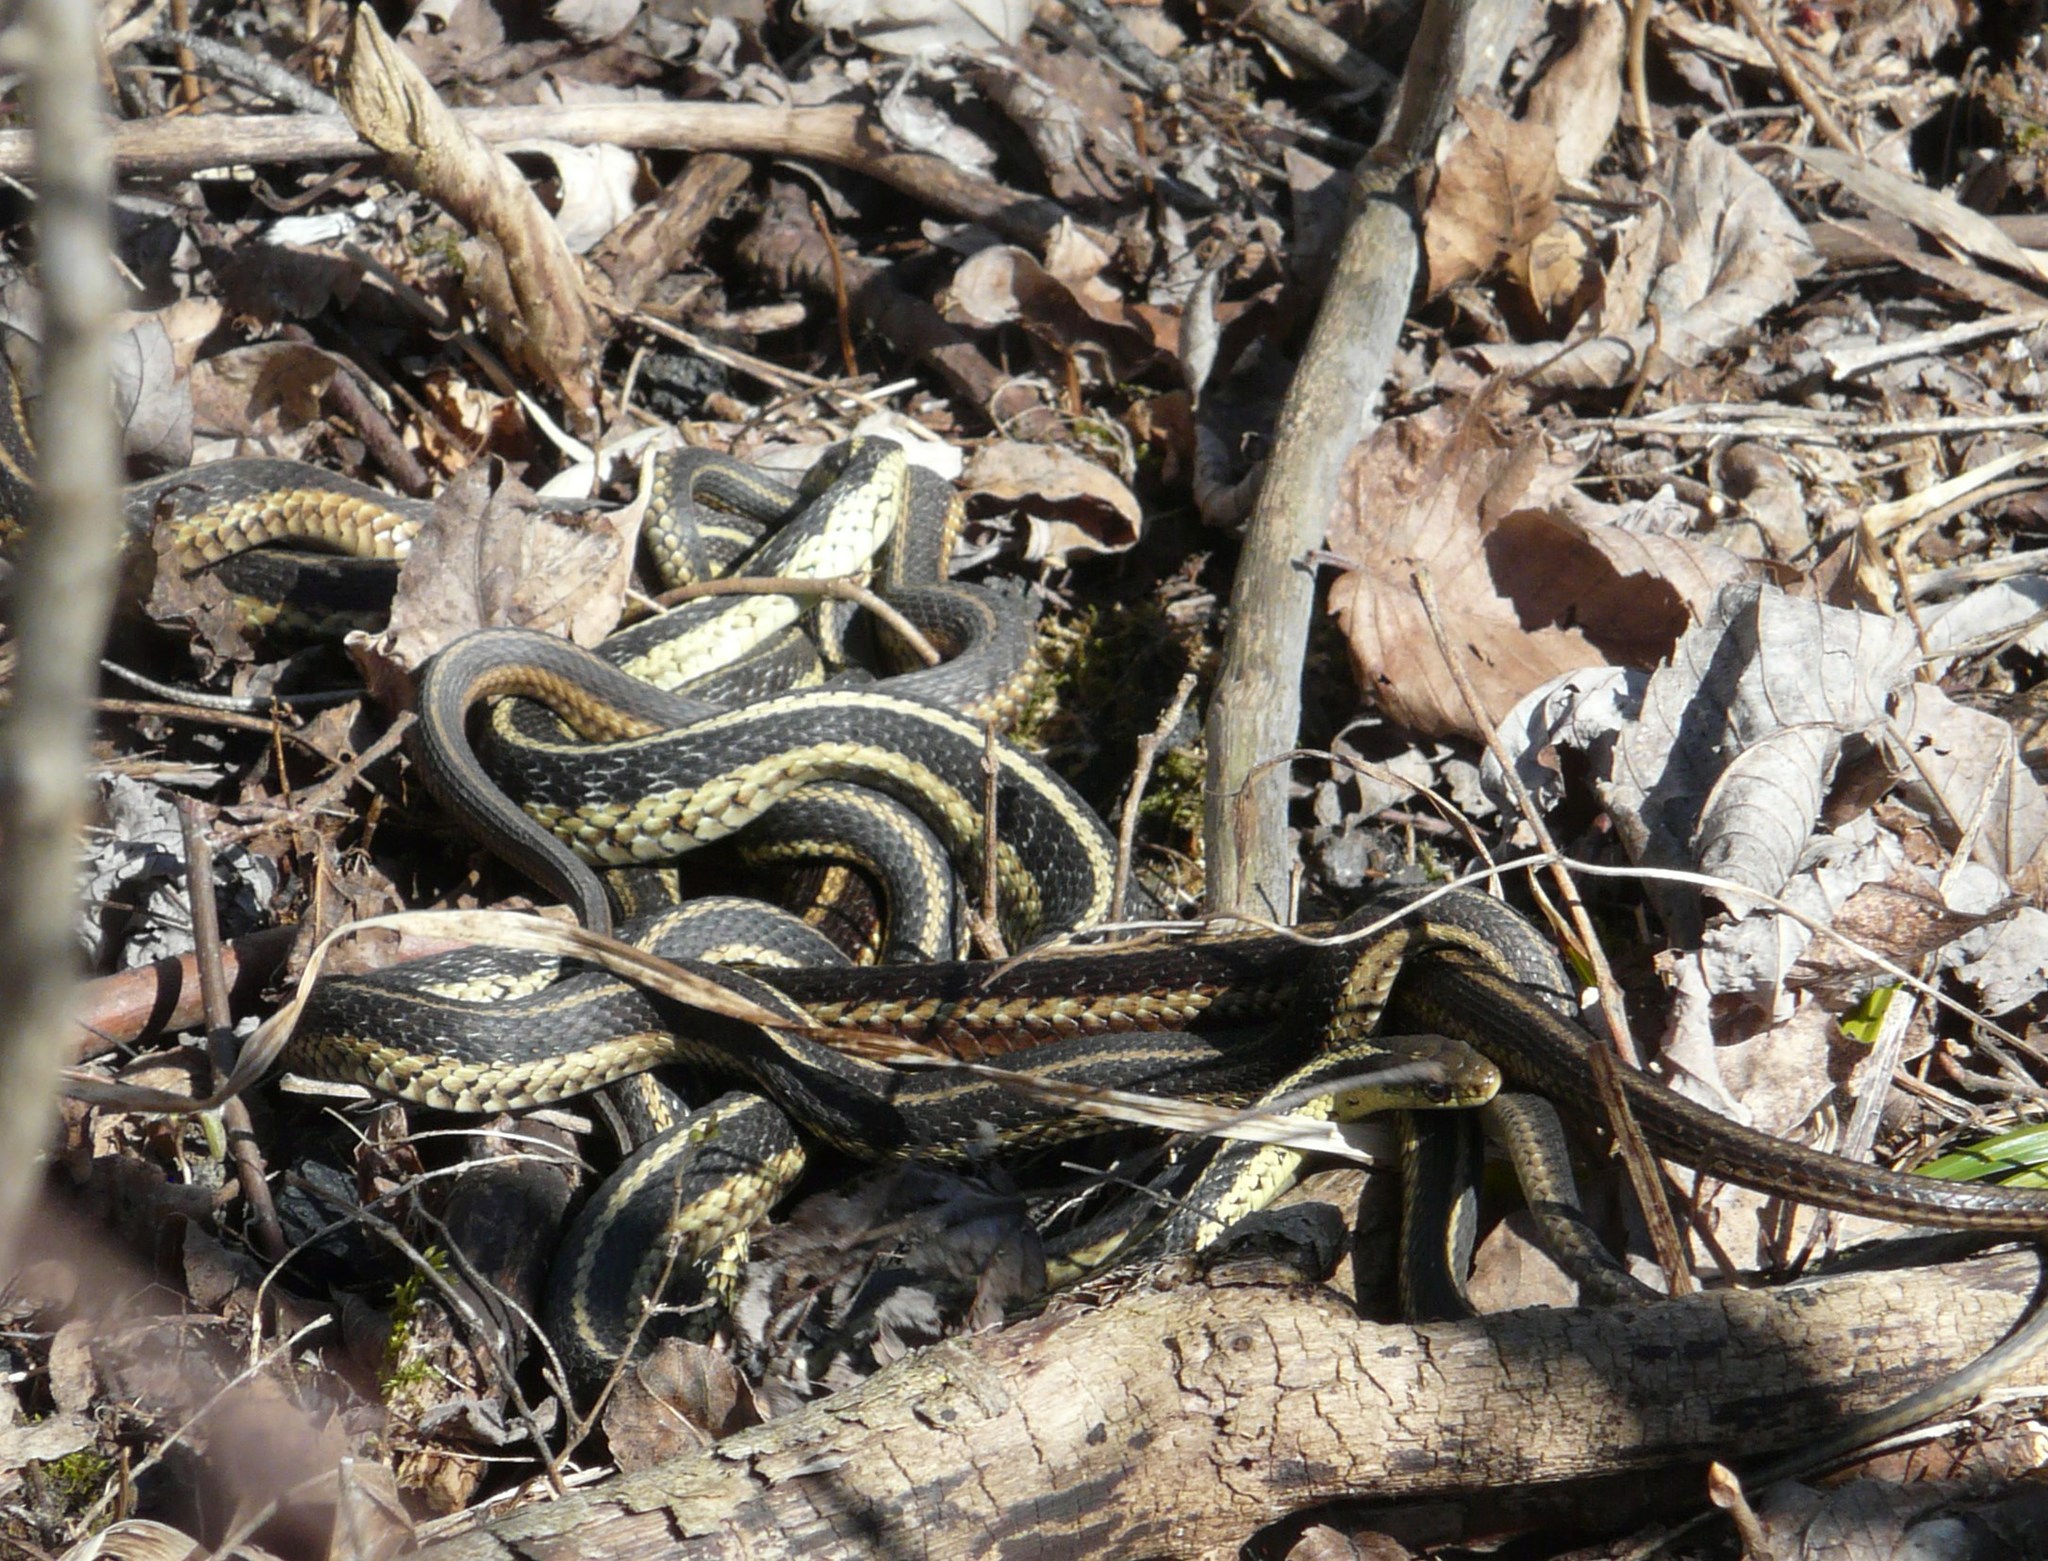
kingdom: Animalia
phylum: Chordata
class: Squamata
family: Colubridae
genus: Thamnophis
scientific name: Thamnophis sirtalis
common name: Common garter snake
